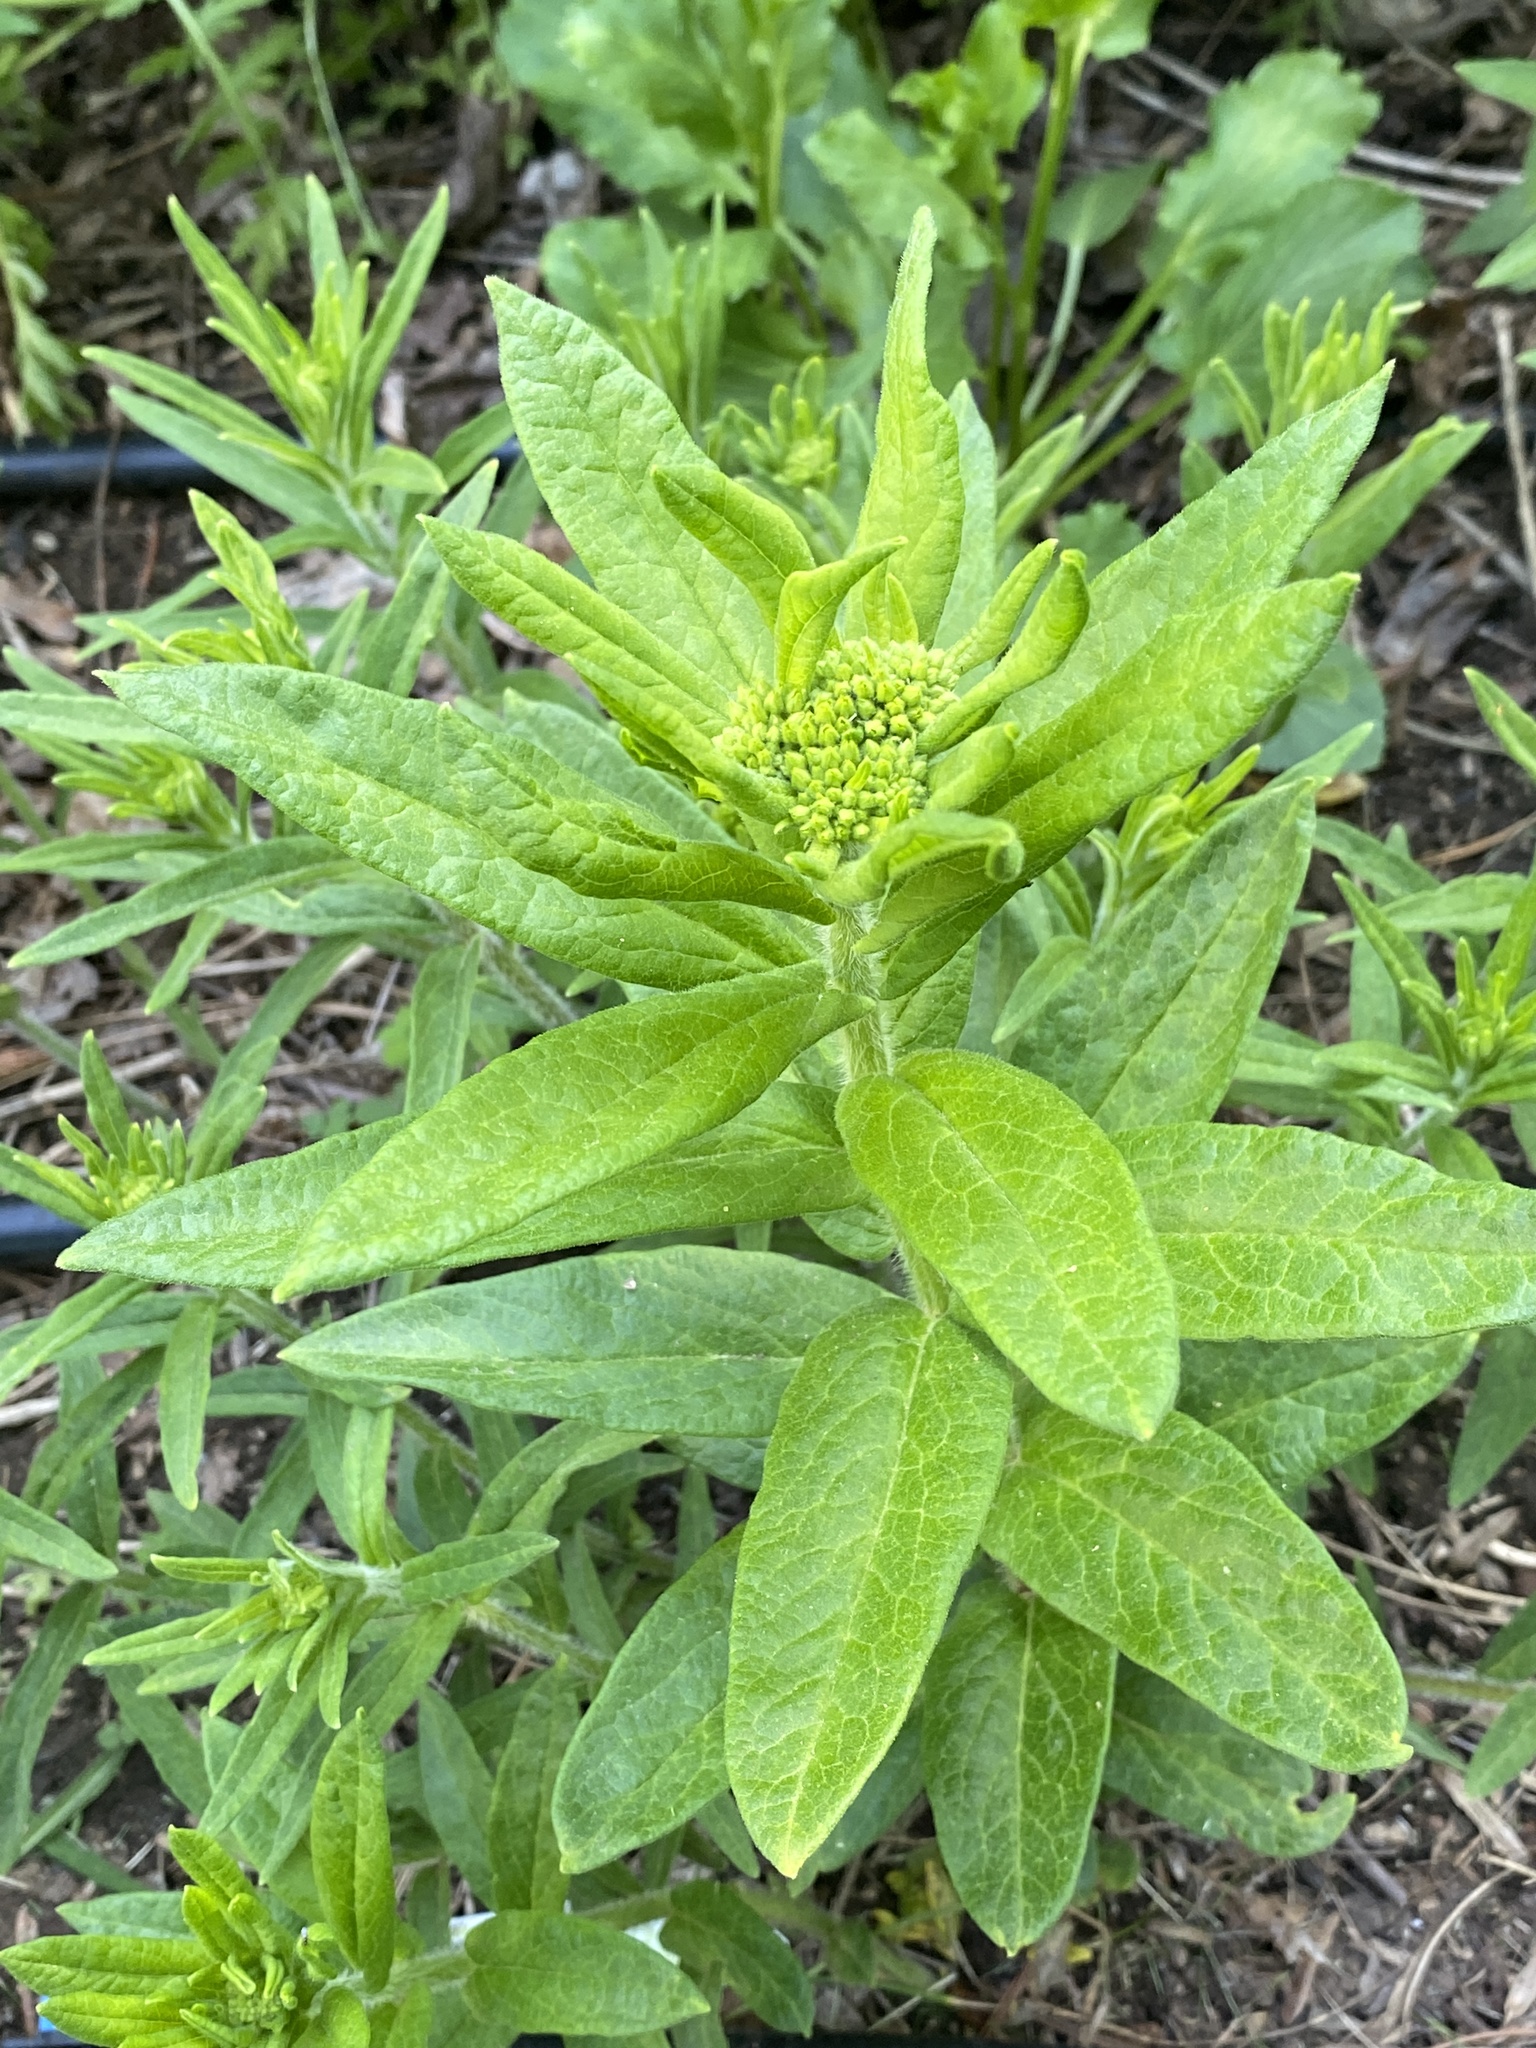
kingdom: Plantae
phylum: Tracheophyta
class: Magnoliopsida
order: Gentianales
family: Apocynaceae
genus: Asclepias
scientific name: Asclepias tuberosa
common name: Butterfly milkweed
